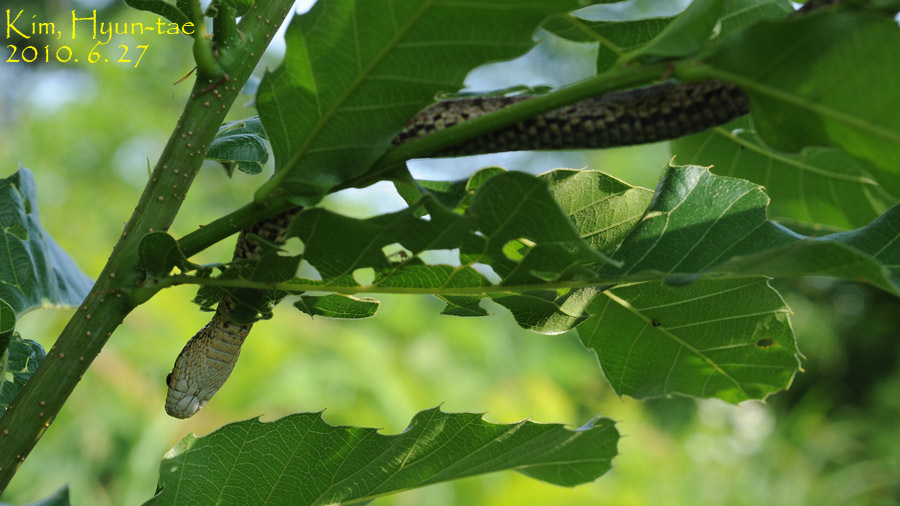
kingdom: Animalia
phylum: Chordata
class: Squamata
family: Colubridae
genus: Elaphe
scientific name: Elaphe dione
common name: Dione ratsnake
